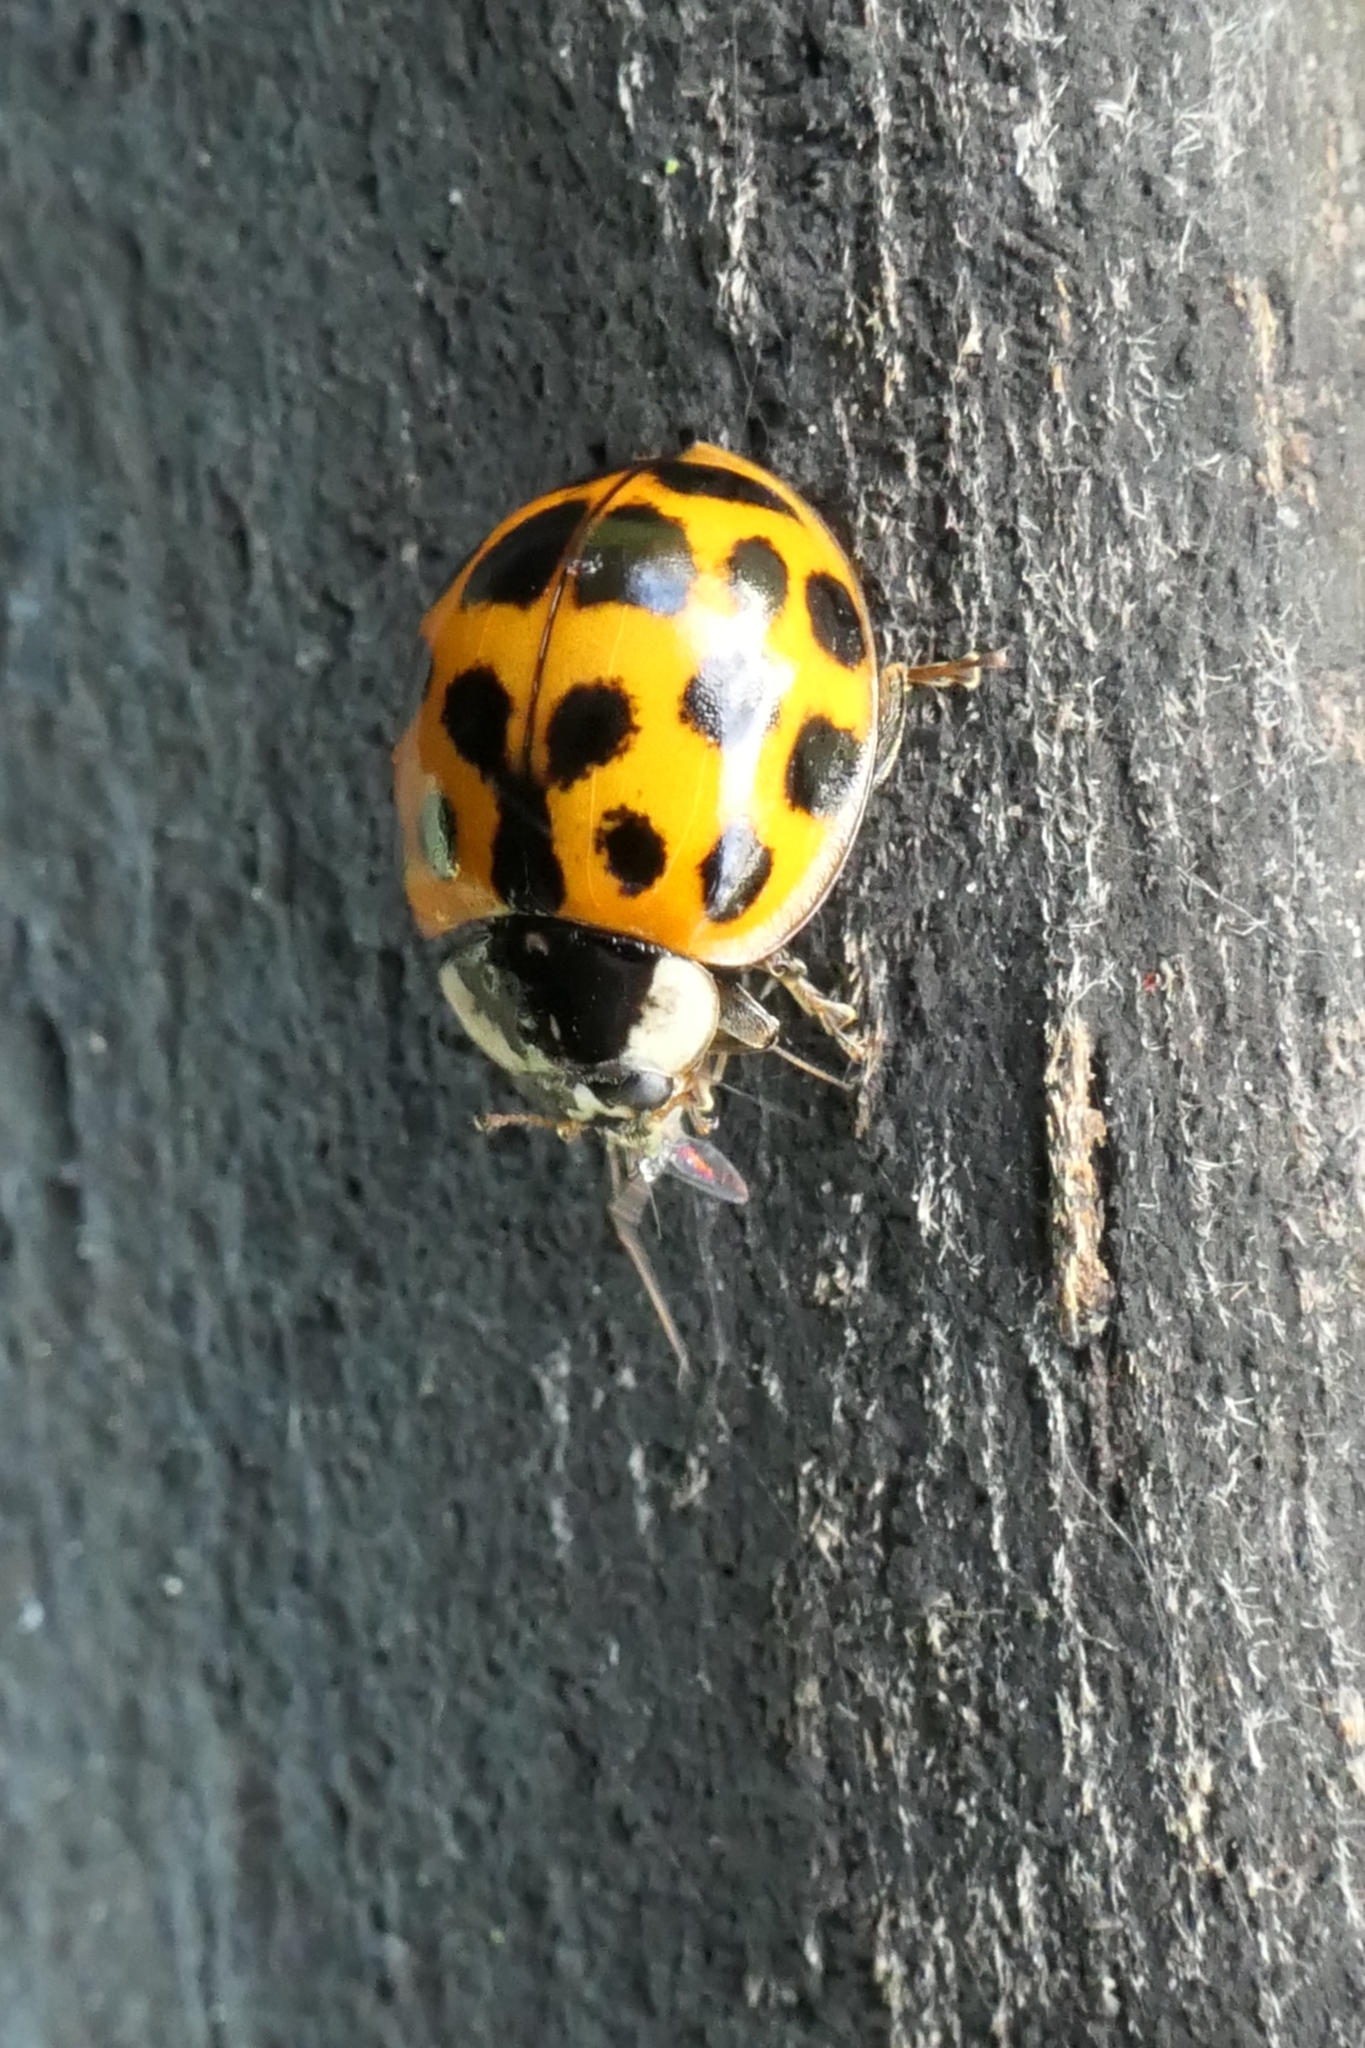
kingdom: Animalia
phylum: Arthropoda
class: Insecta
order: Coleoptera
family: Coccinellidae
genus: Harmonia
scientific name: Harmonia axyridis
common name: Harlequin ladybird
